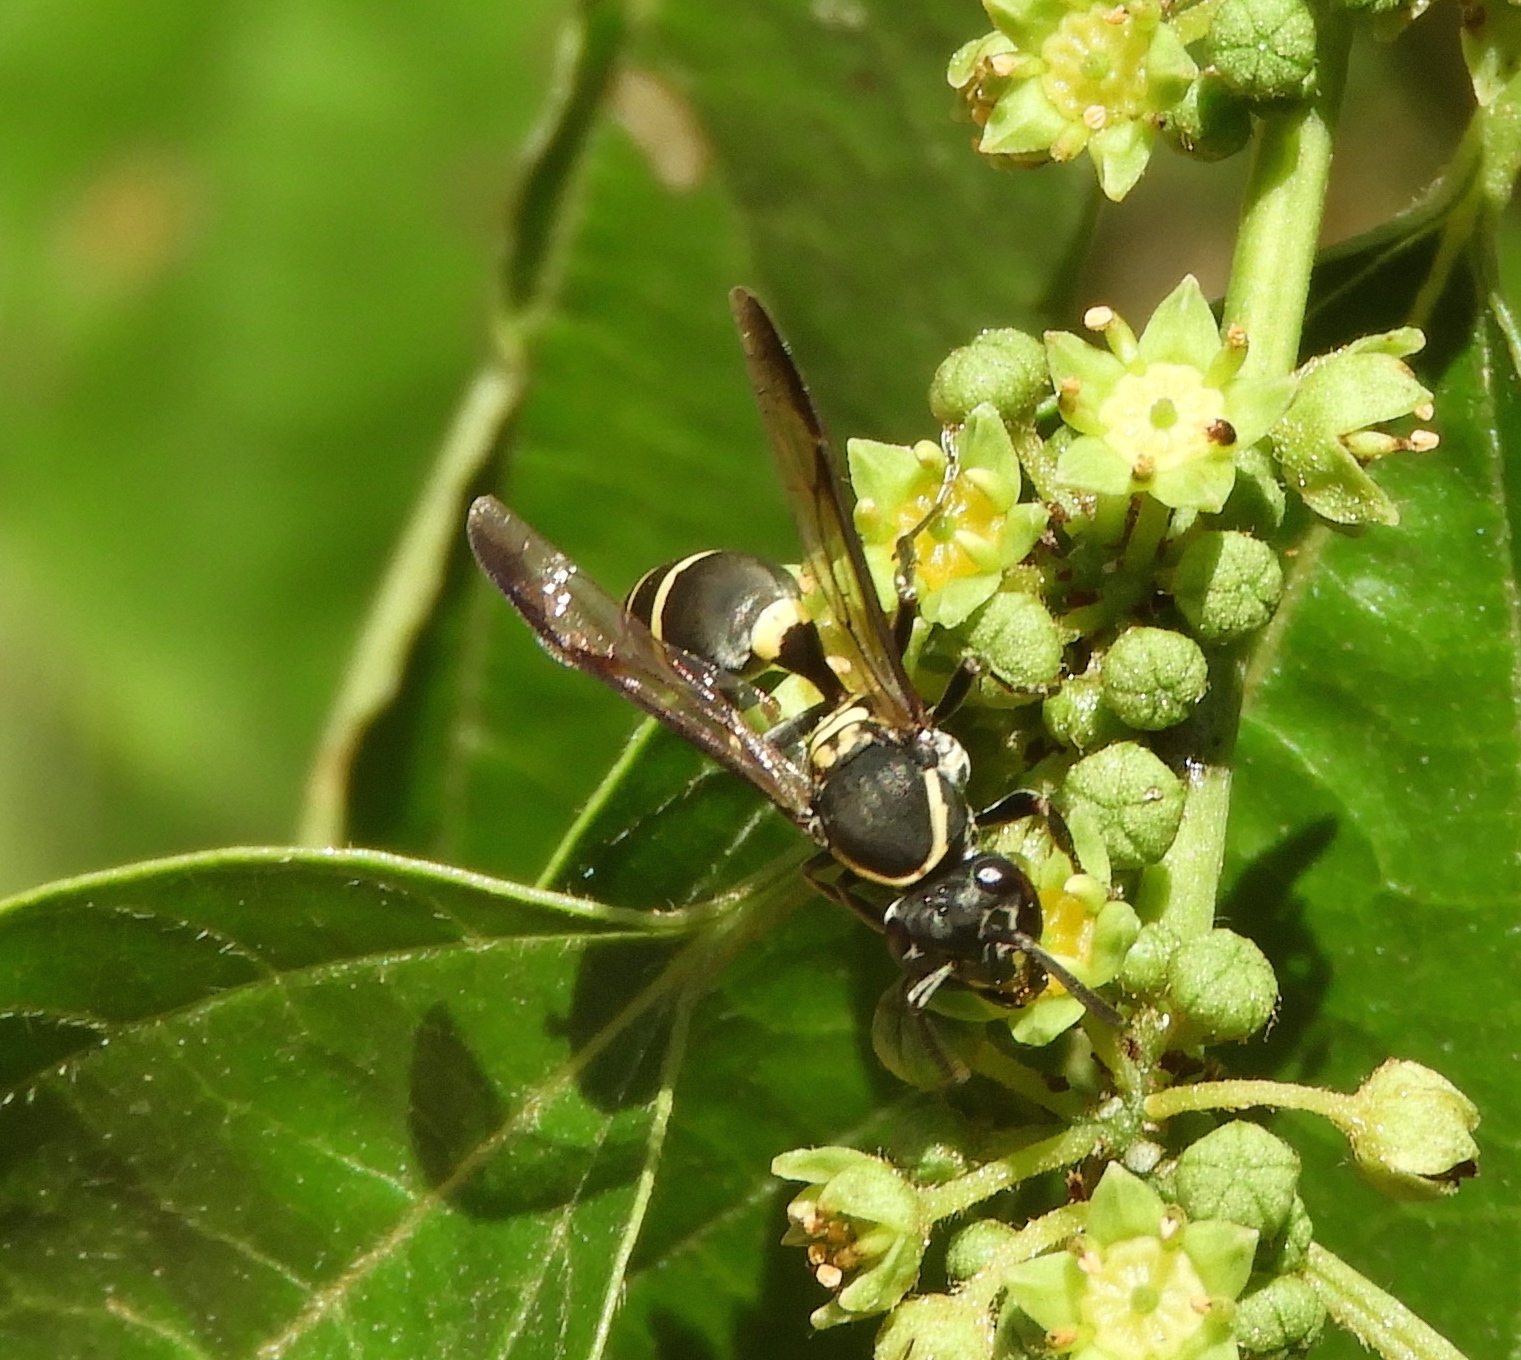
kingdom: Animalia
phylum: Arthropoda
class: Insecta
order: Hymenoptera
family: Vespidae
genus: Myrapetra
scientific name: Myrapetra
